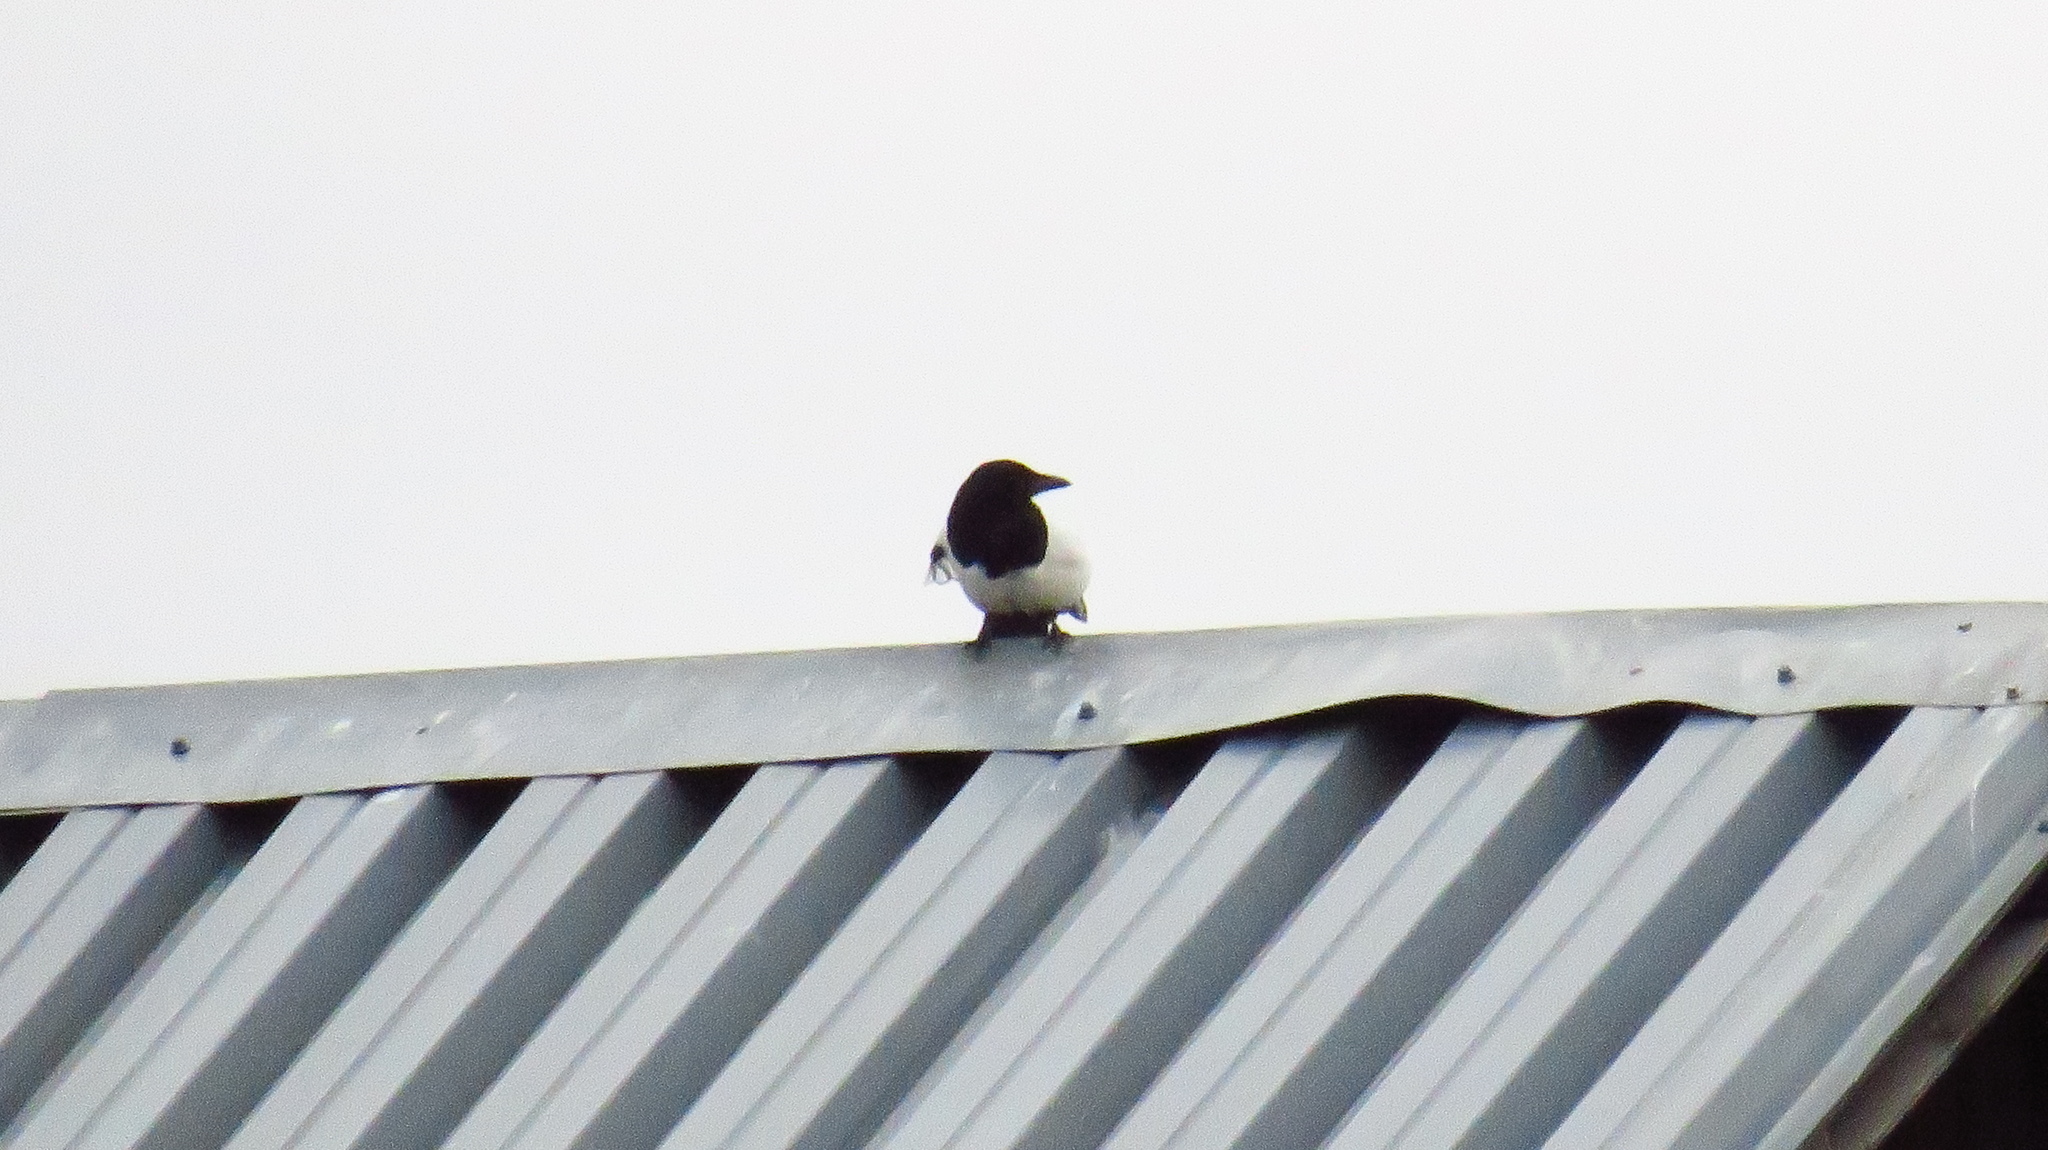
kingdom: Animalia
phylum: Chordata
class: Aves
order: Passeriformes
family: Corvidae
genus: Pica
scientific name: Pica pica
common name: Eurasian magpie
